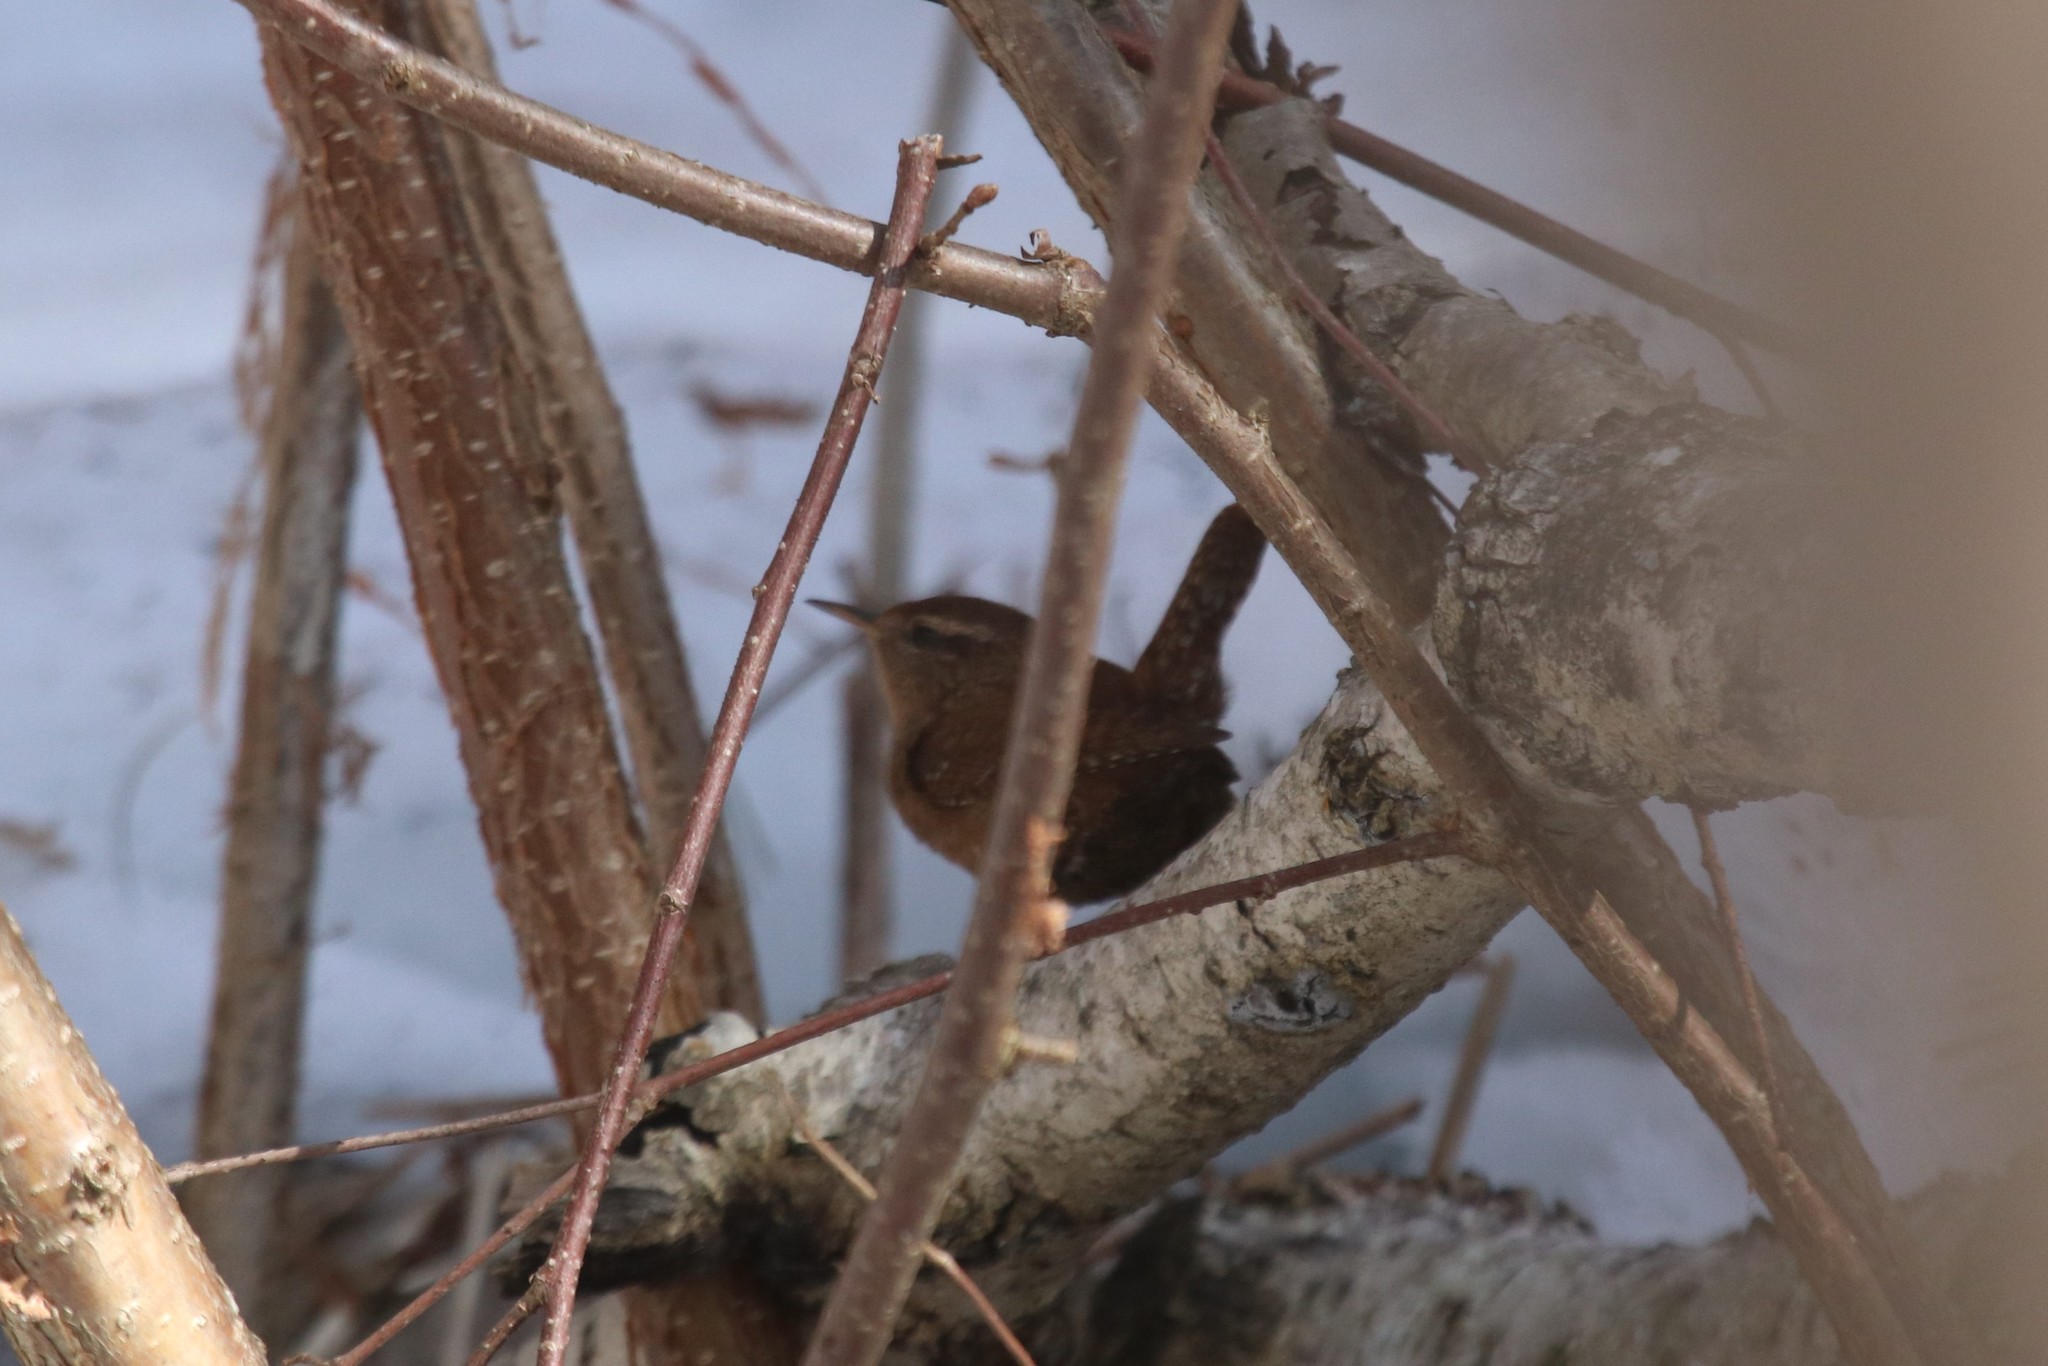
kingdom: Animalia
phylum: Chordata
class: Aves
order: Passeriformes
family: Troglodytidae
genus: Troglodytes
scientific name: Troglodytes troglodytes
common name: Eurasian wren
